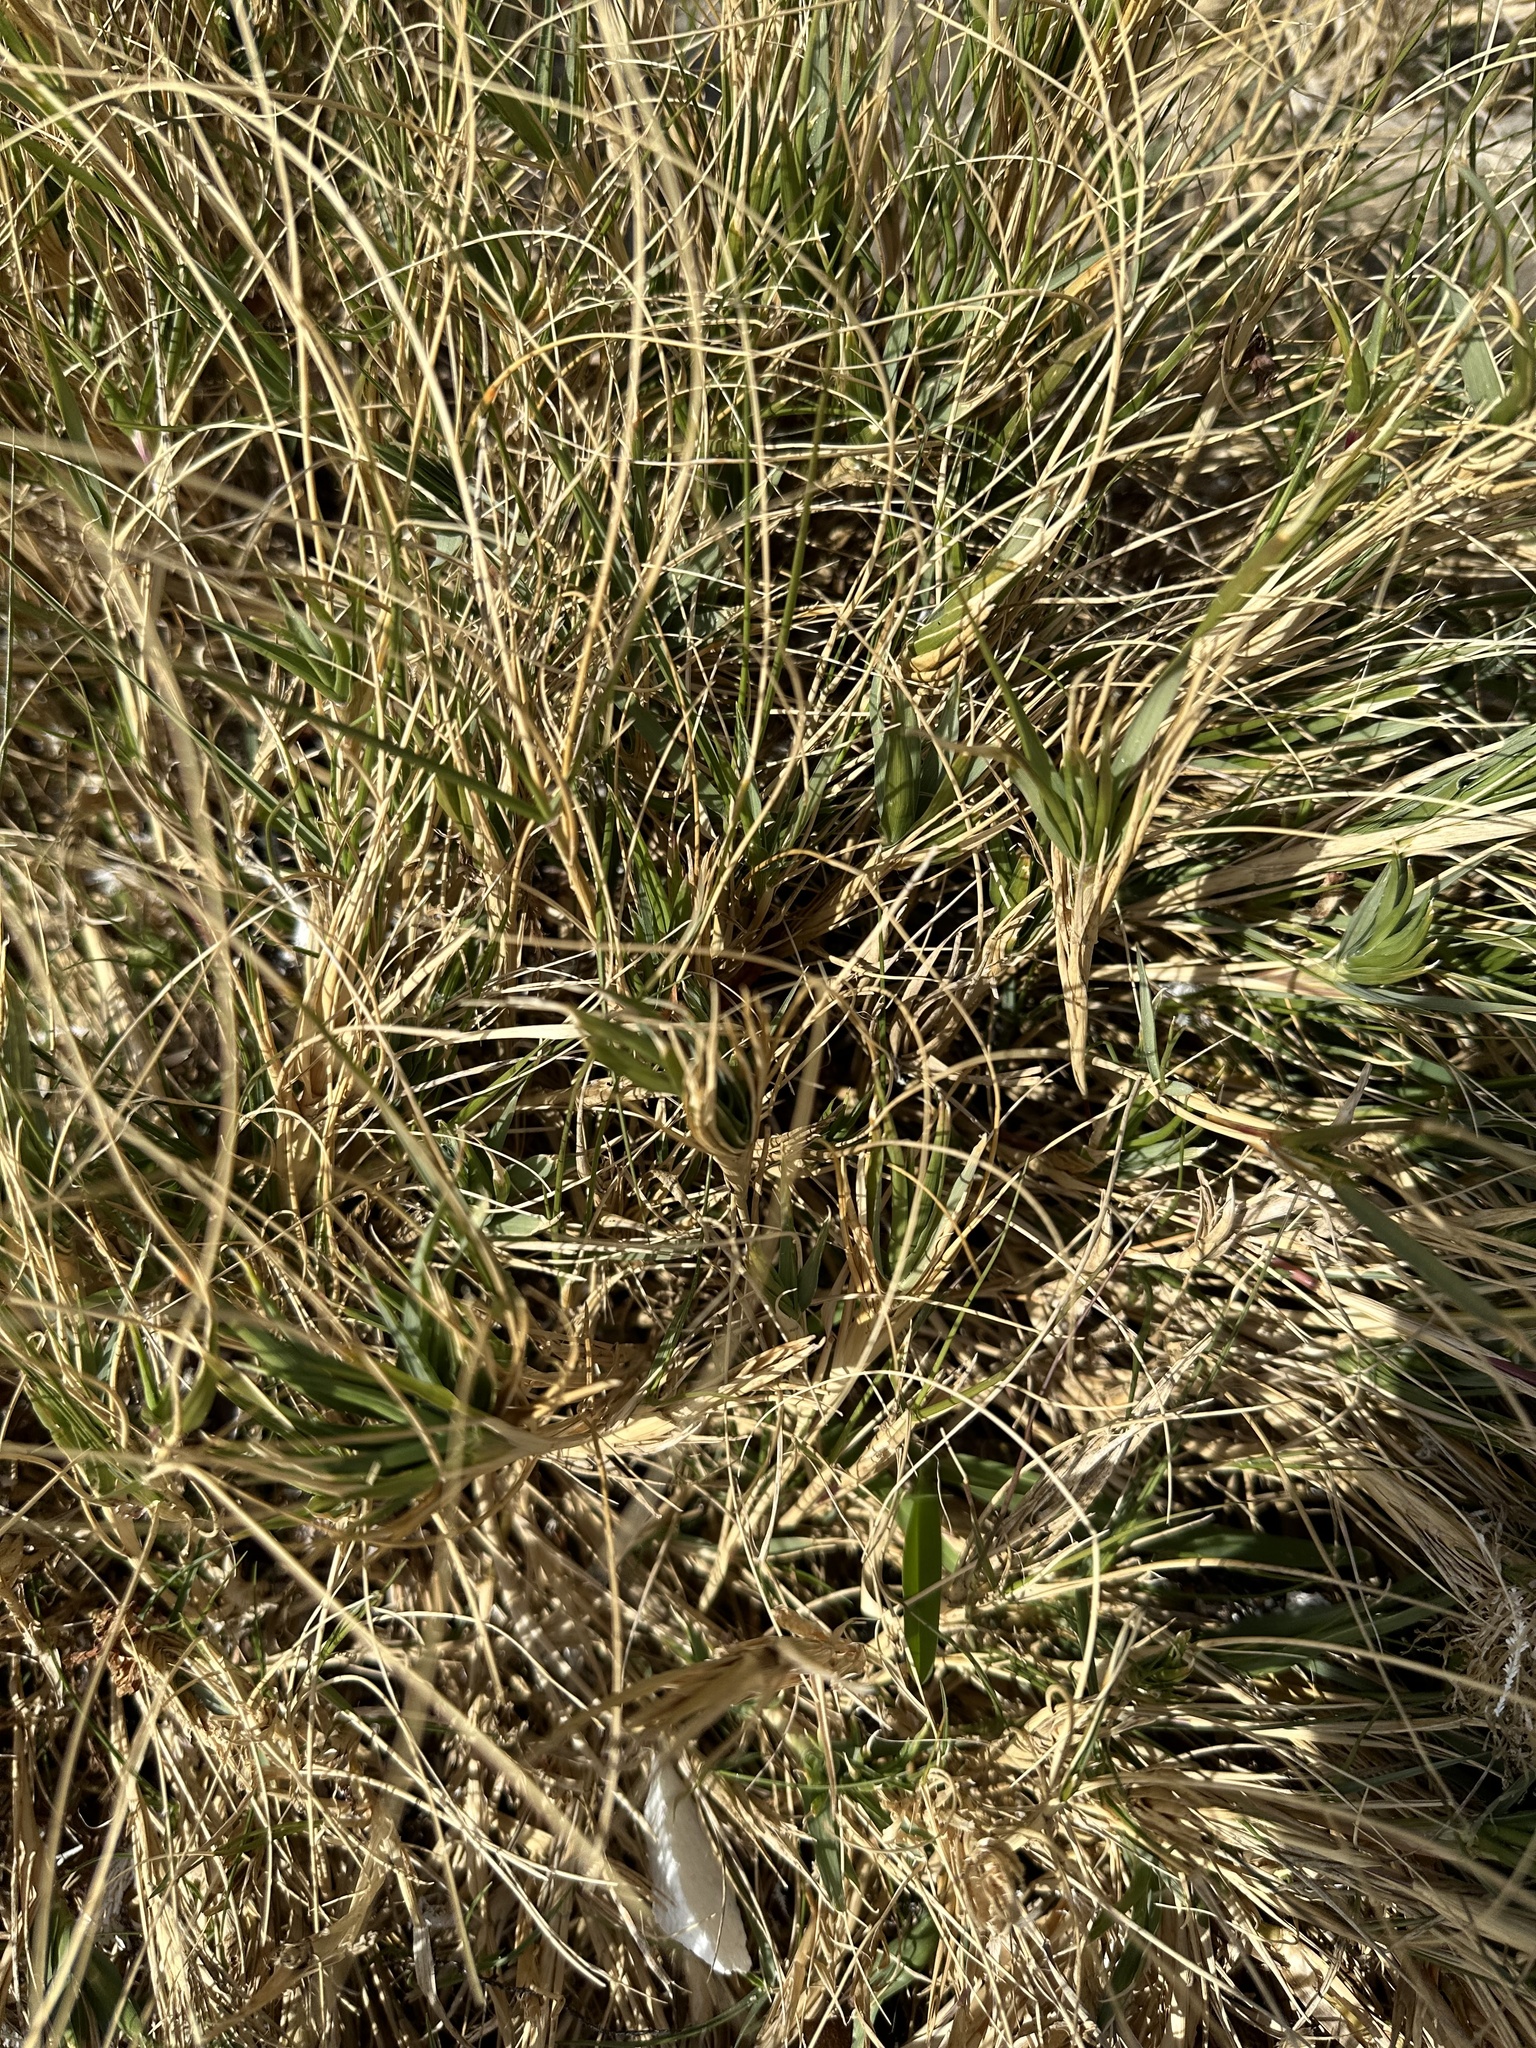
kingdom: Plantae
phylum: Tracheophyta
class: Liliopsida
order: Poales
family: Poaceae
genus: Sporobolus
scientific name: Sporobolus virginicus
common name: Beach dropseed
